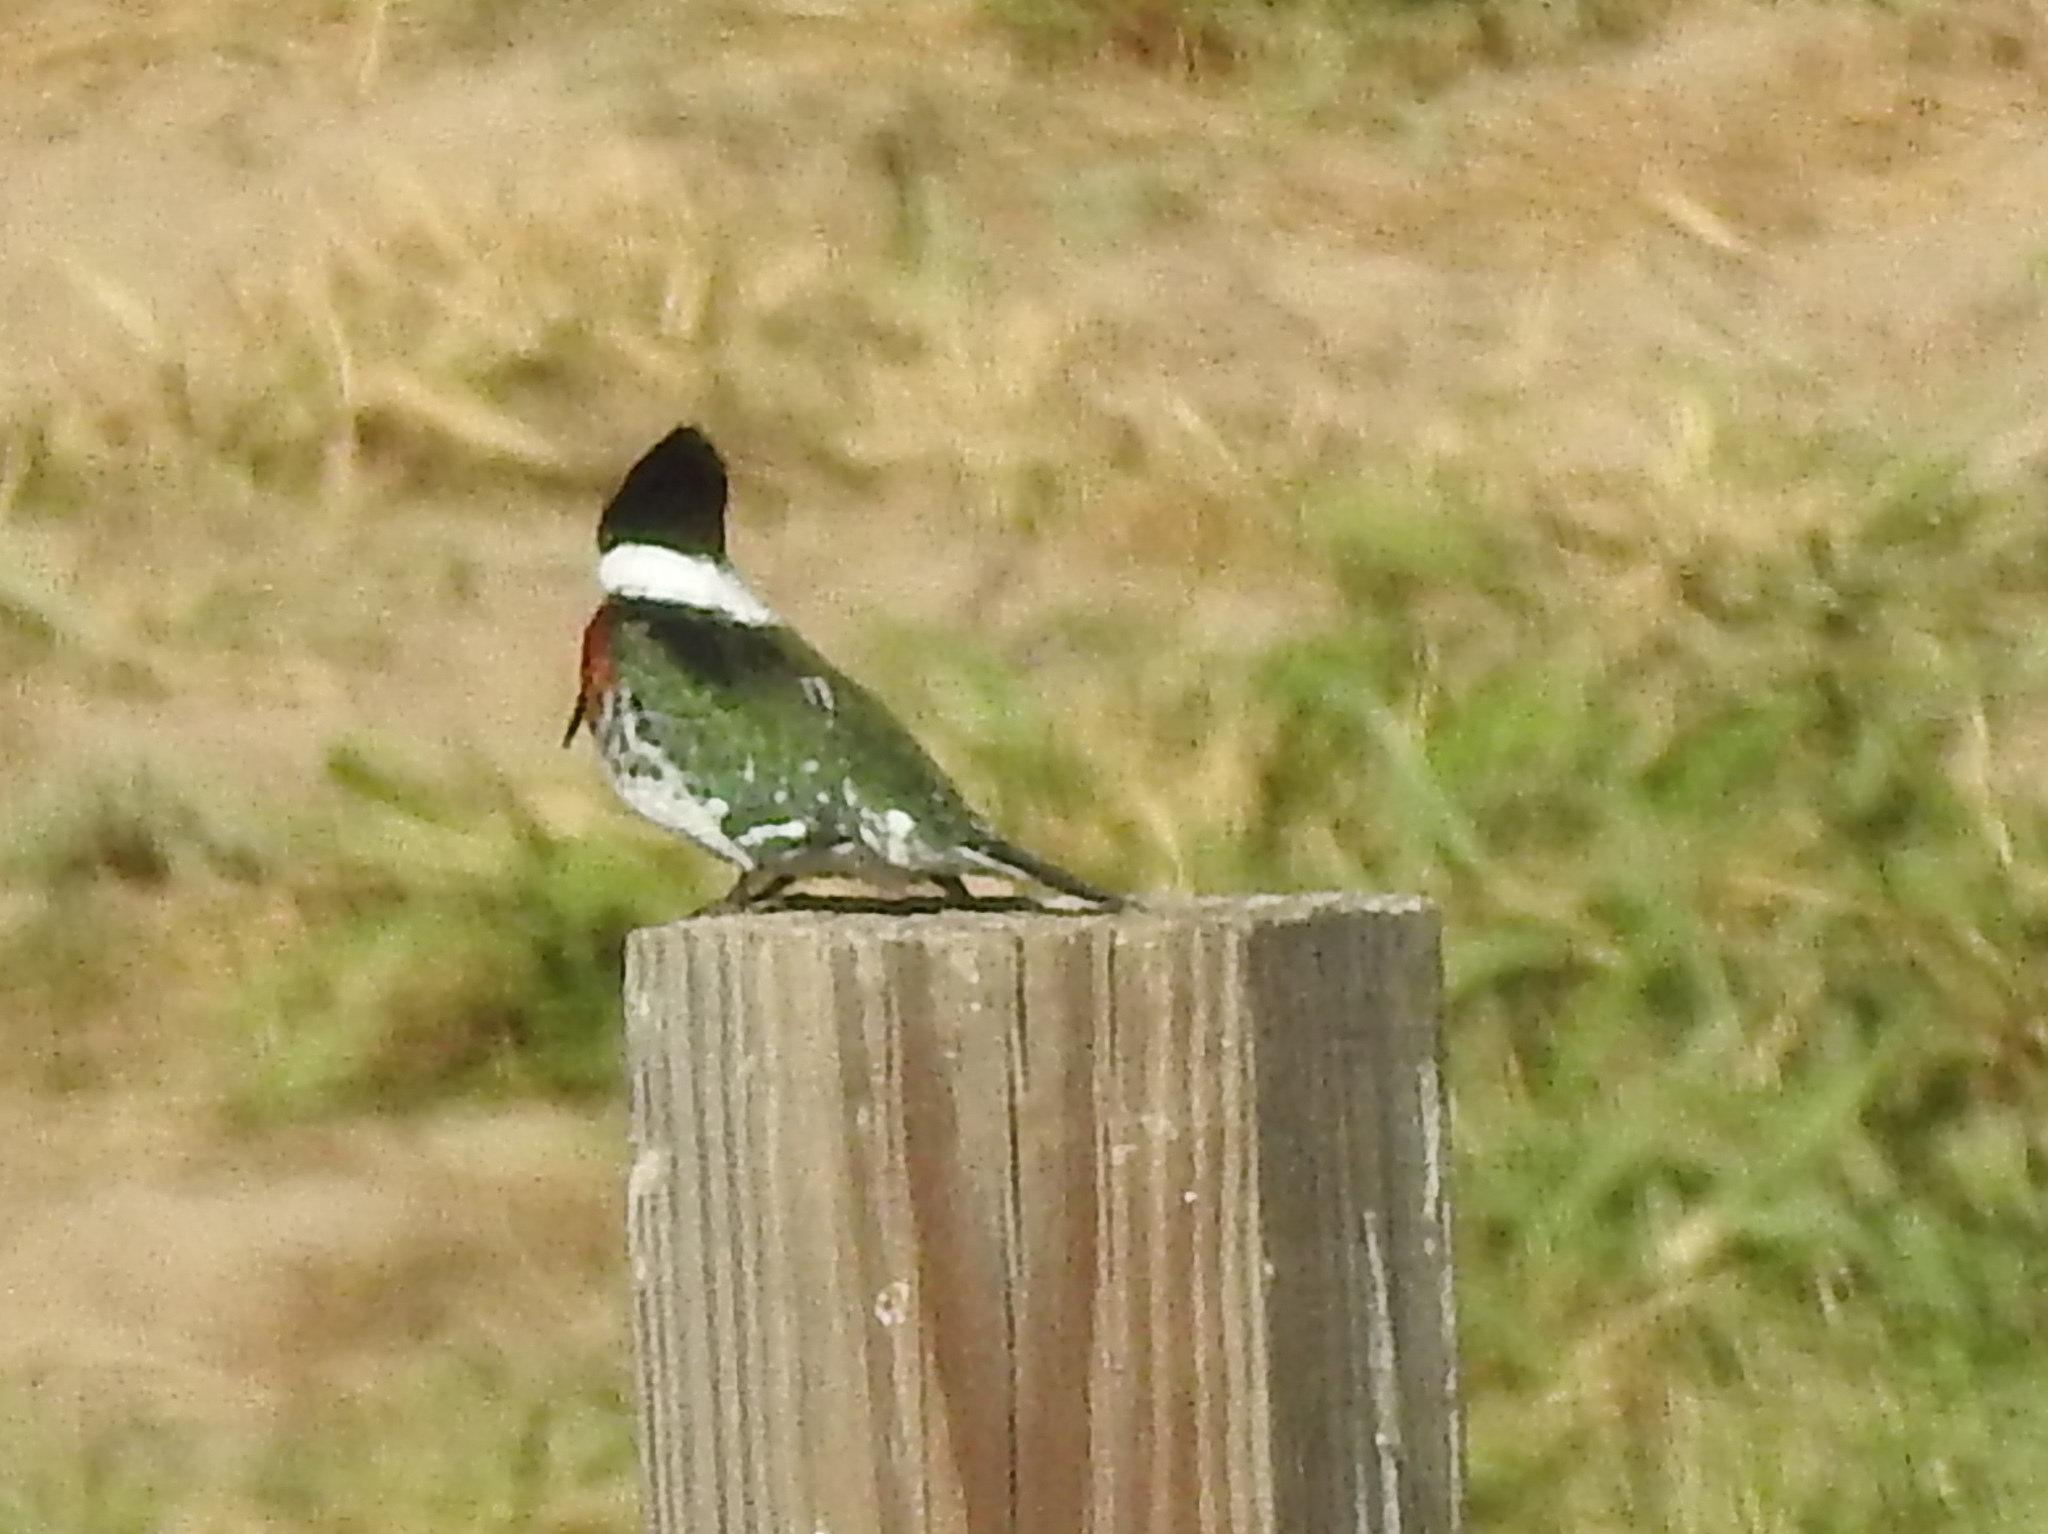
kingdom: Animalia
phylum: Chordata
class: Aves
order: Coraciiformes
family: Alcedinidae
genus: Chloroceryle
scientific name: Chloroceryle americana
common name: Green kingfisher
